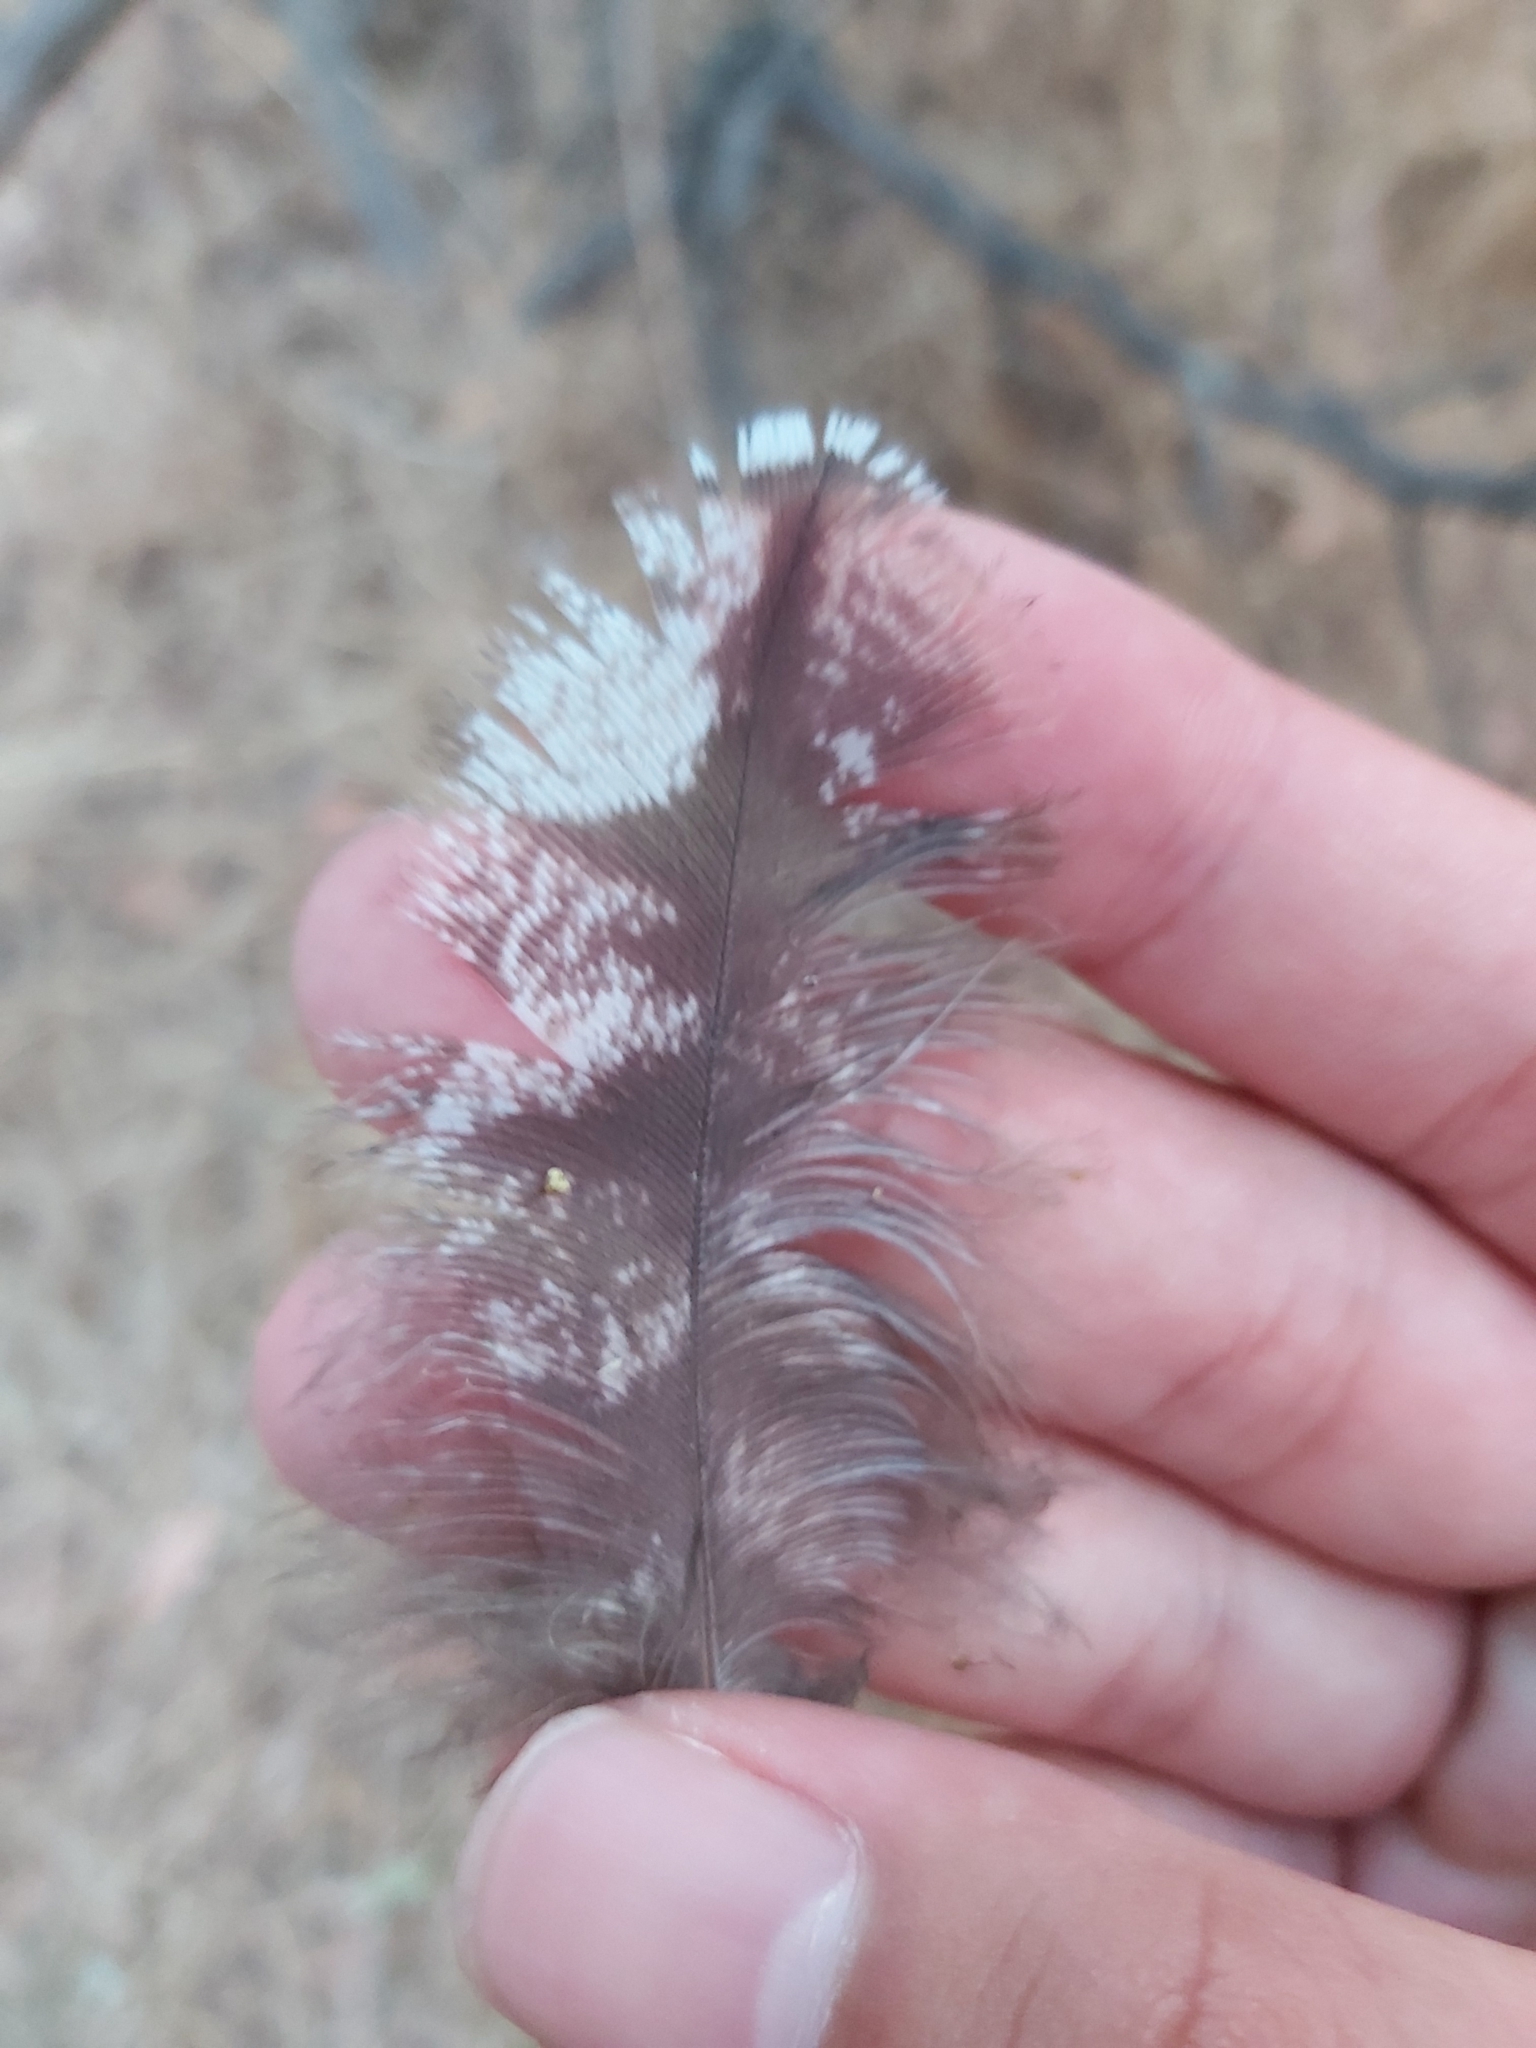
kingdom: Animalia
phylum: Chordata
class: Aves
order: Caprimulgiformes
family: Podargidae
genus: Podargus
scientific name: Podargus strigoides
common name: Tawny frogmouth
